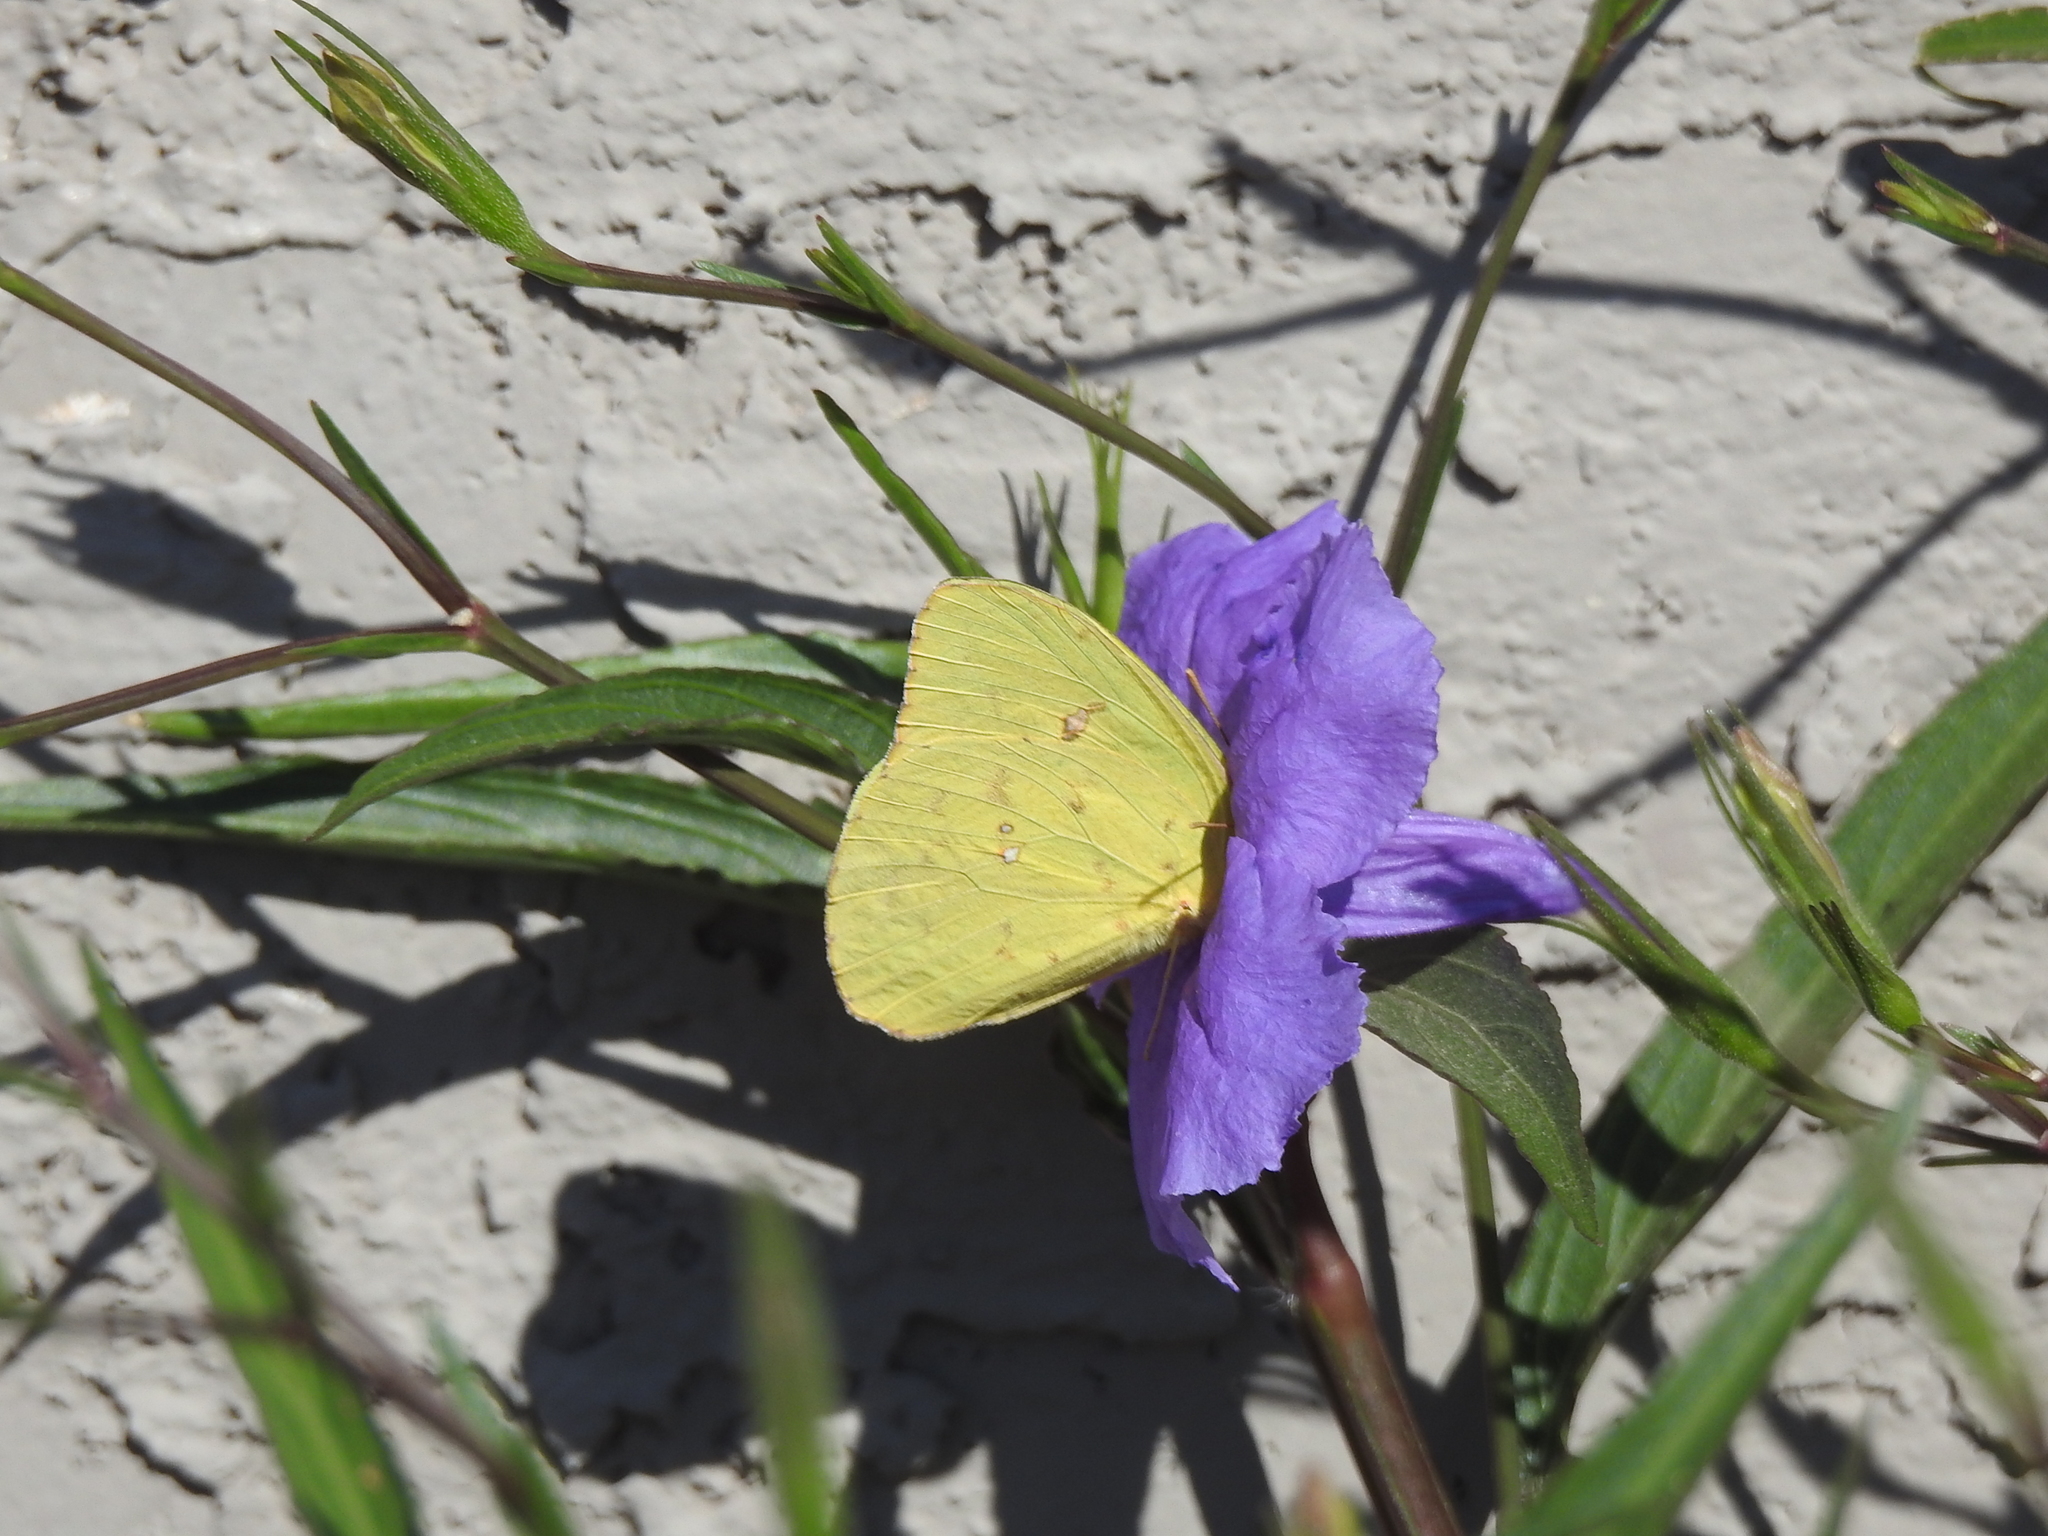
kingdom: Animalia
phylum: Arthropoda
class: Insecta
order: Lepidoptera
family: Pieridae
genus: Phoebis
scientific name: Phoebis sennae
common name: Cloudless sulphur
